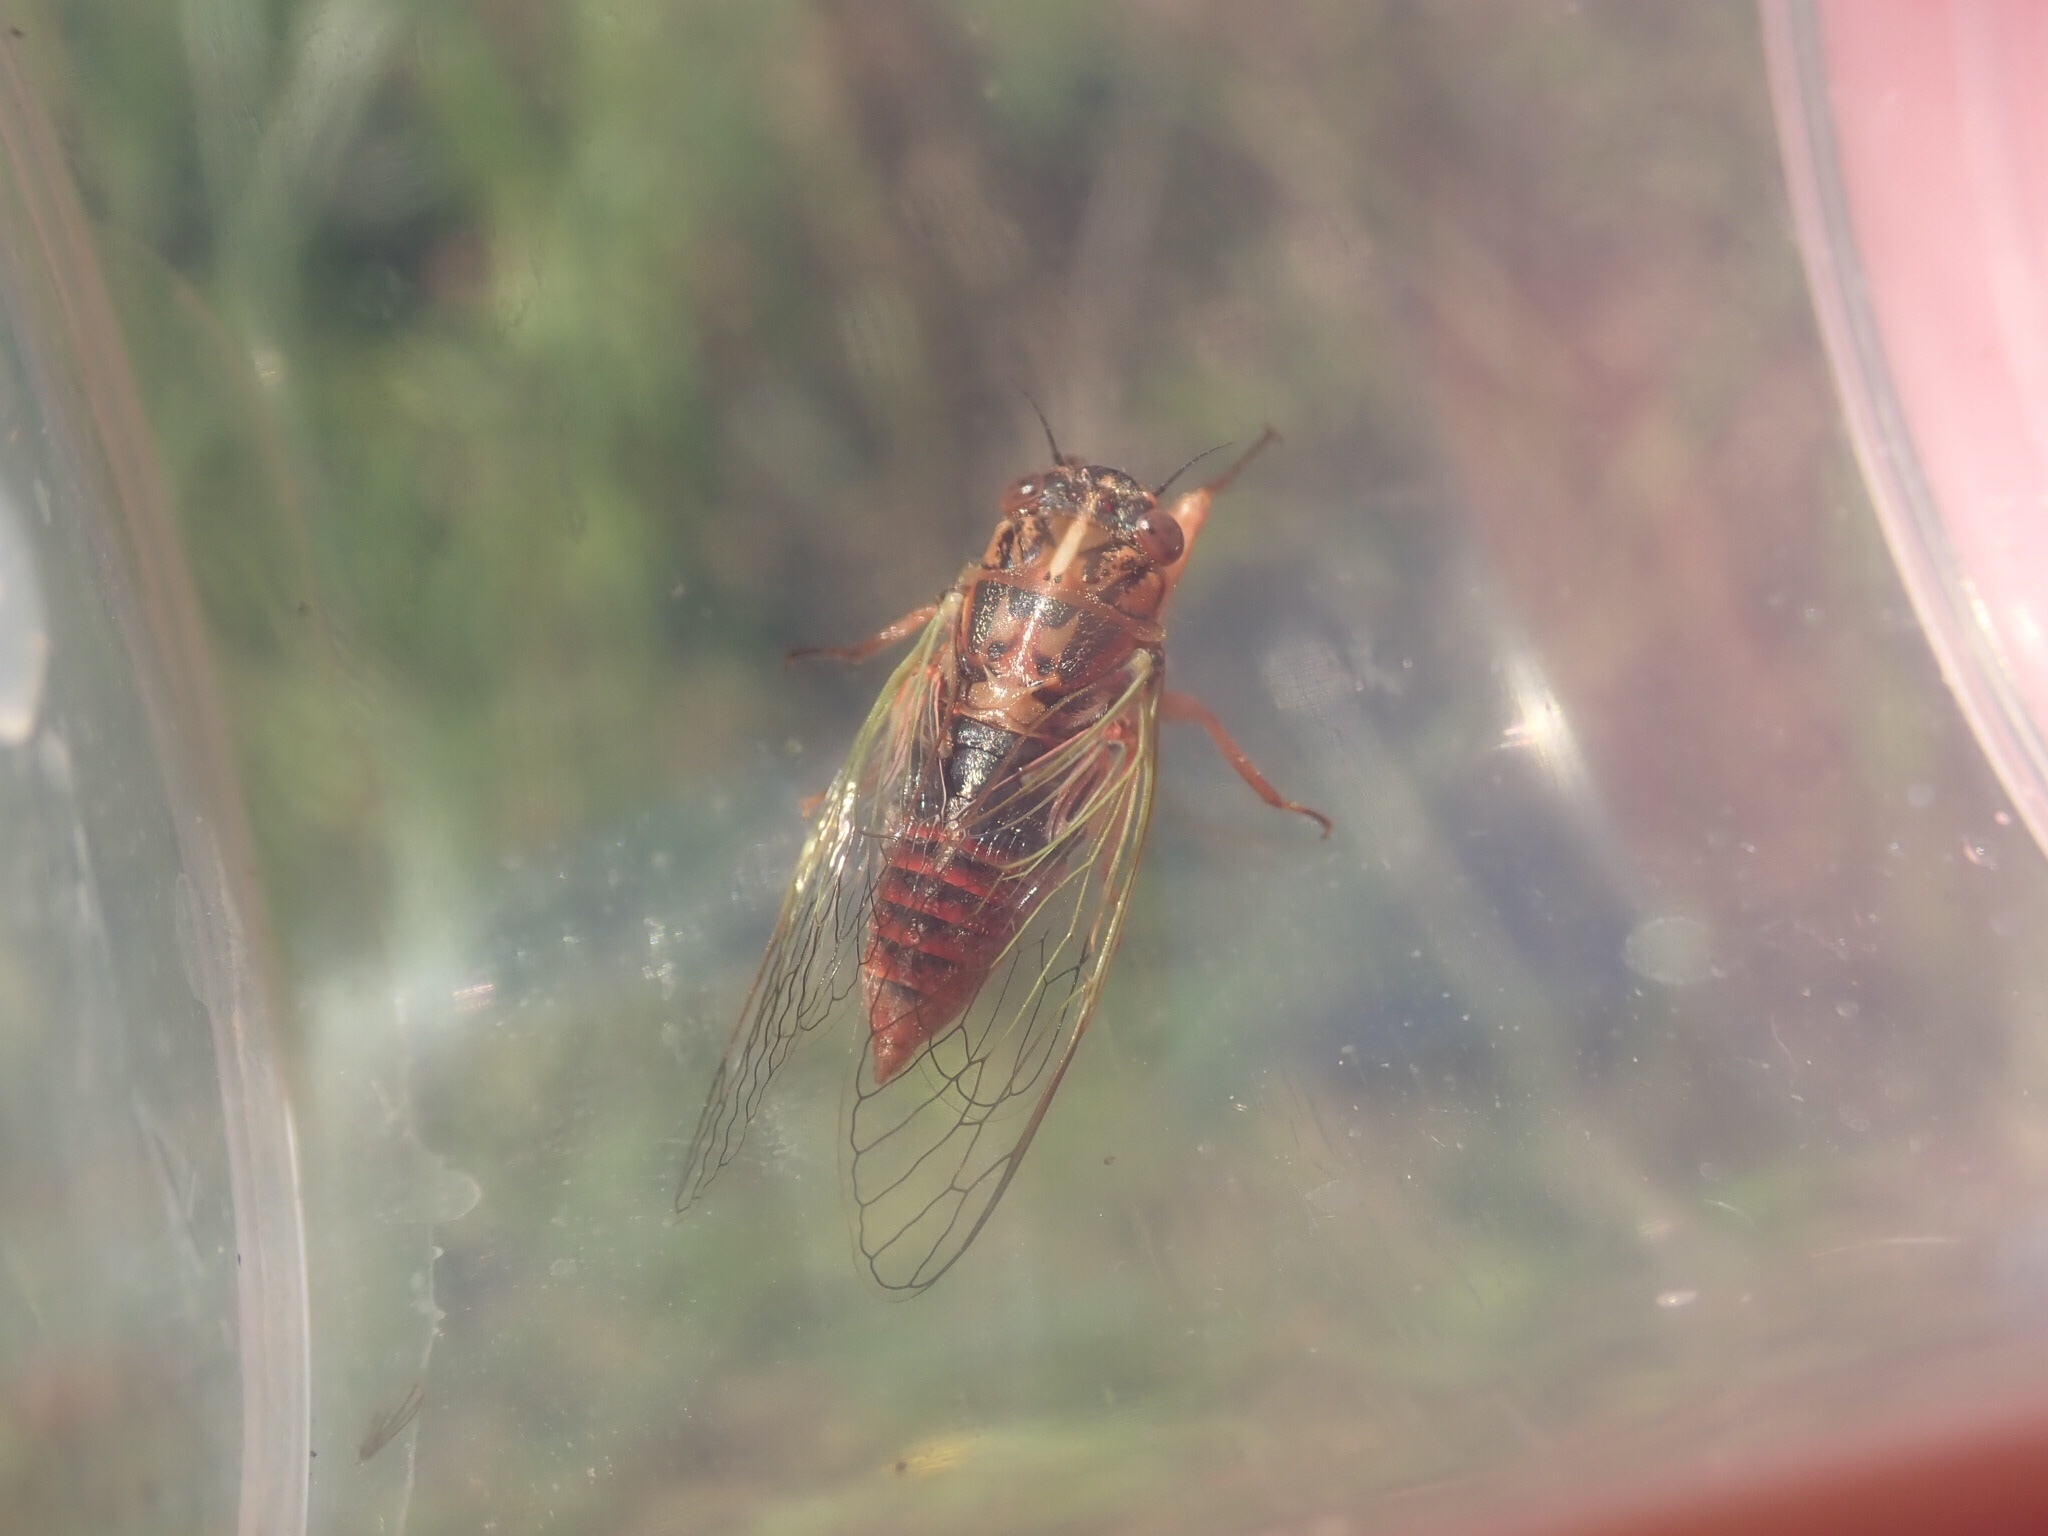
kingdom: Animalia
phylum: Arthropoda
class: Insecta
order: Hemiptera
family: Cicadidae
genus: Rhodopsalta
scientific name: Rhodopsalta cruentata
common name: Blood redtail cicada
